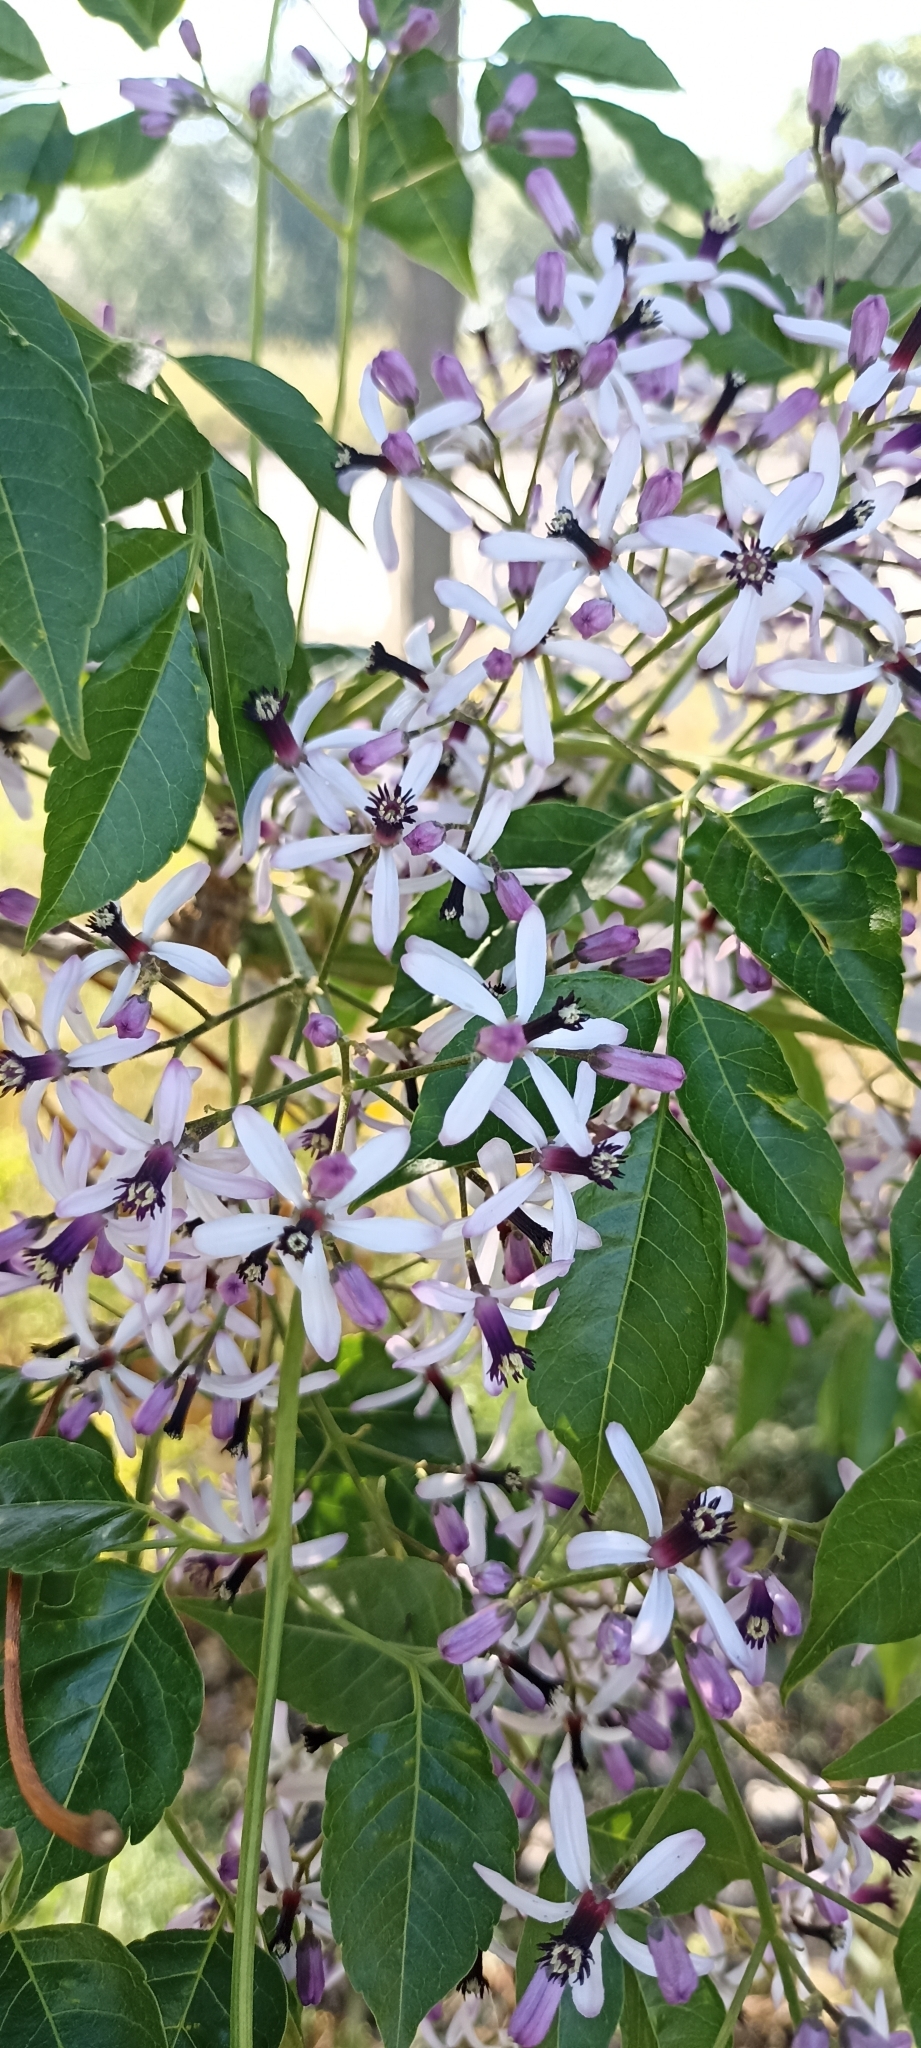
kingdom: Plantae
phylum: Tracheophyta
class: Magnoliopsida
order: Sapindales
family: Meliaceae
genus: Melia
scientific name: Melia azedarach
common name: Chinaberrytree
